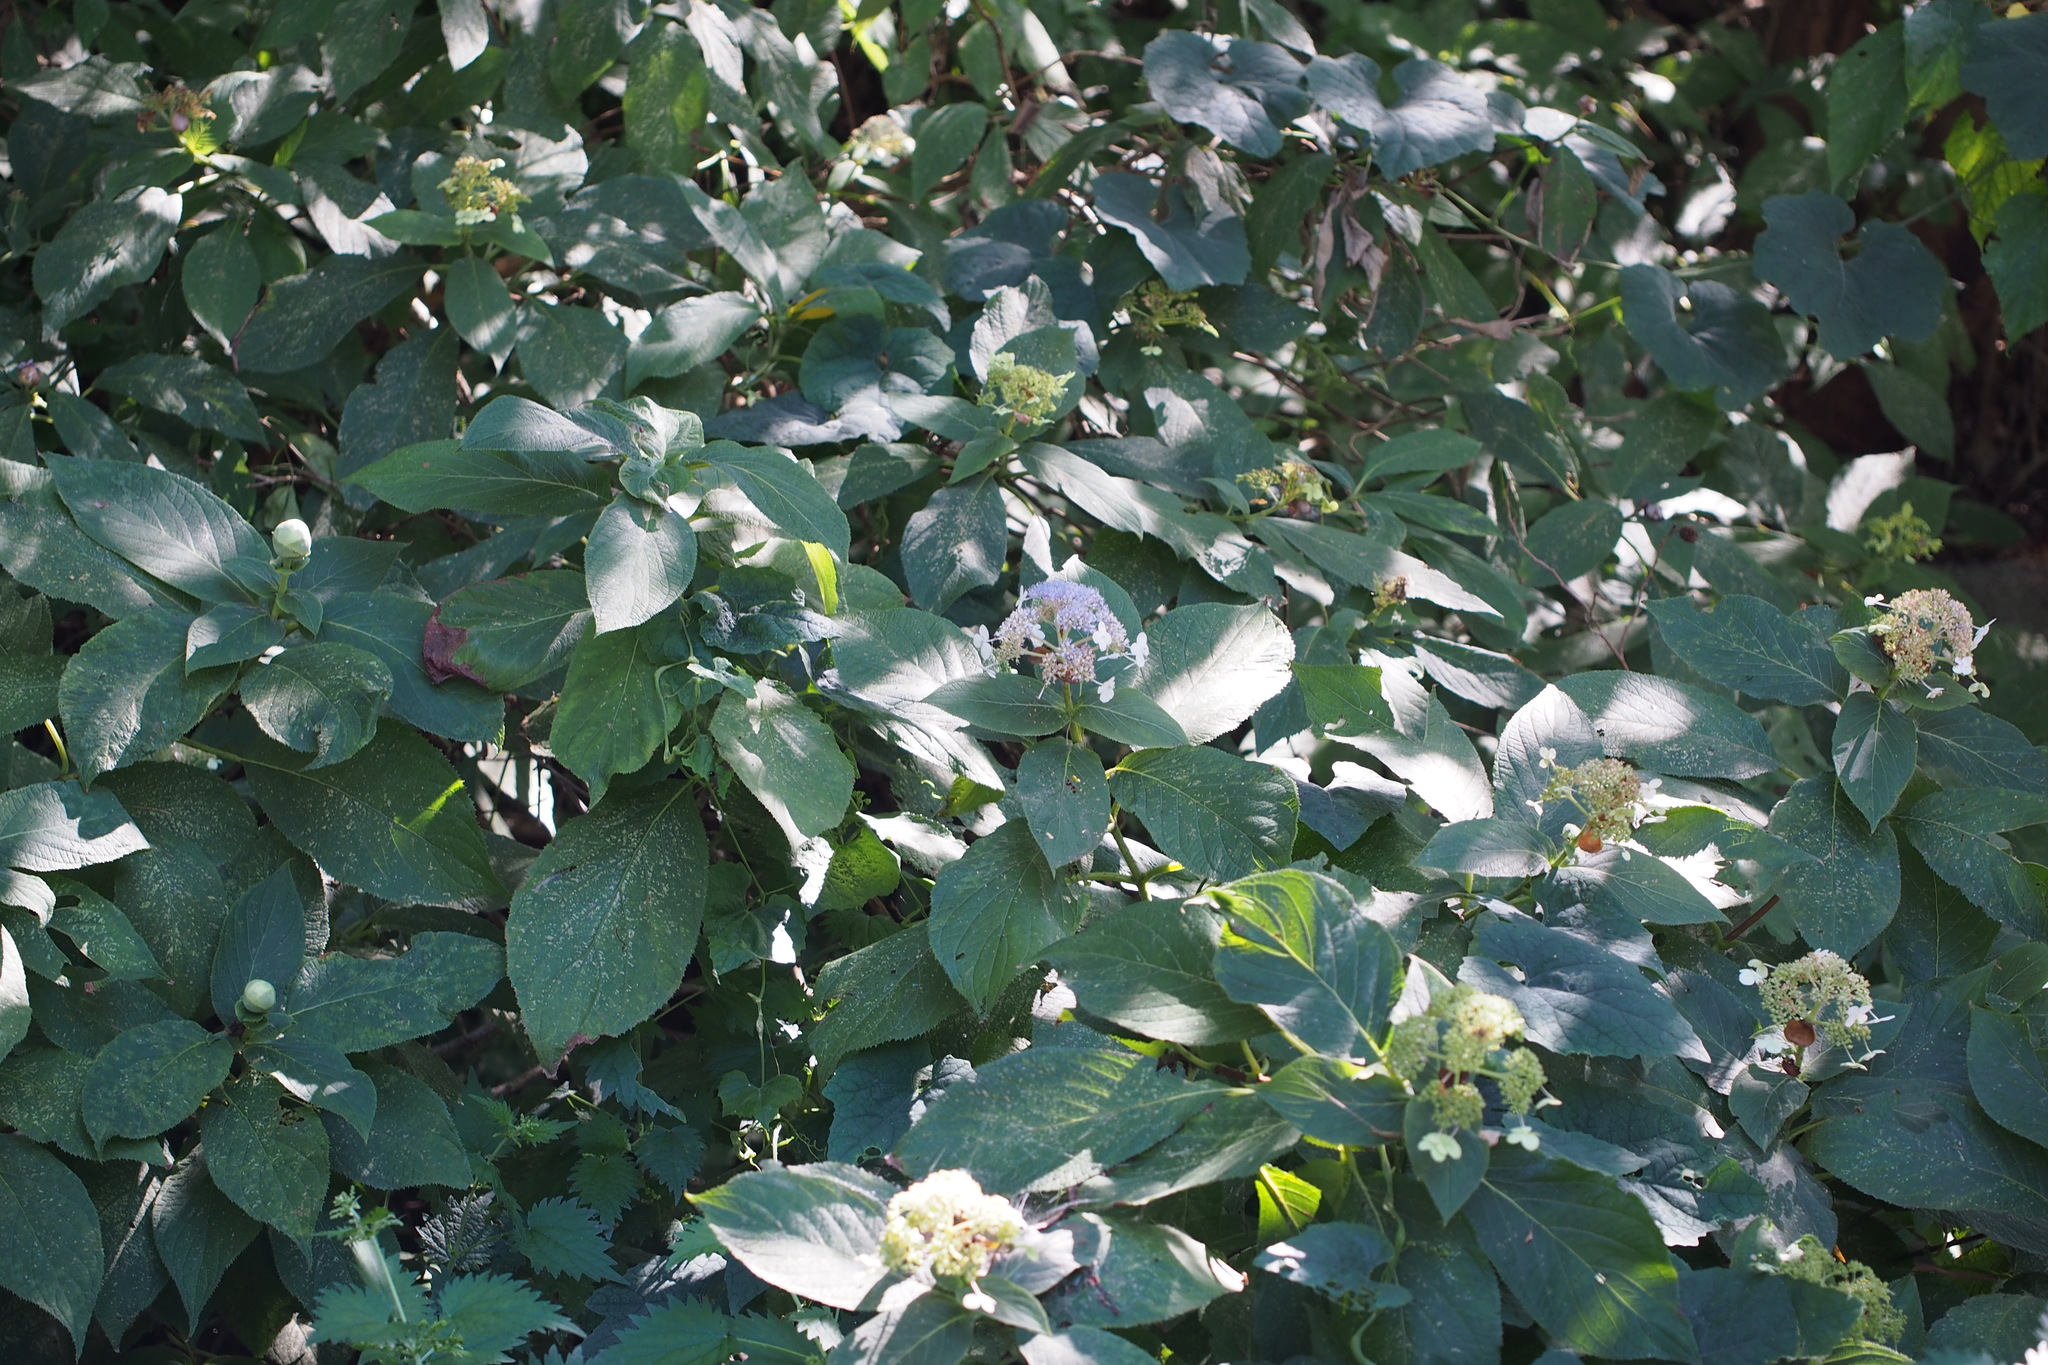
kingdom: Plantae
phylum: Tracheophyta
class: Magnoliopsida
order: Cornales
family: Hydrangeaceae
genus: Hydrangea
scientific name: Hydrangea involucrata
